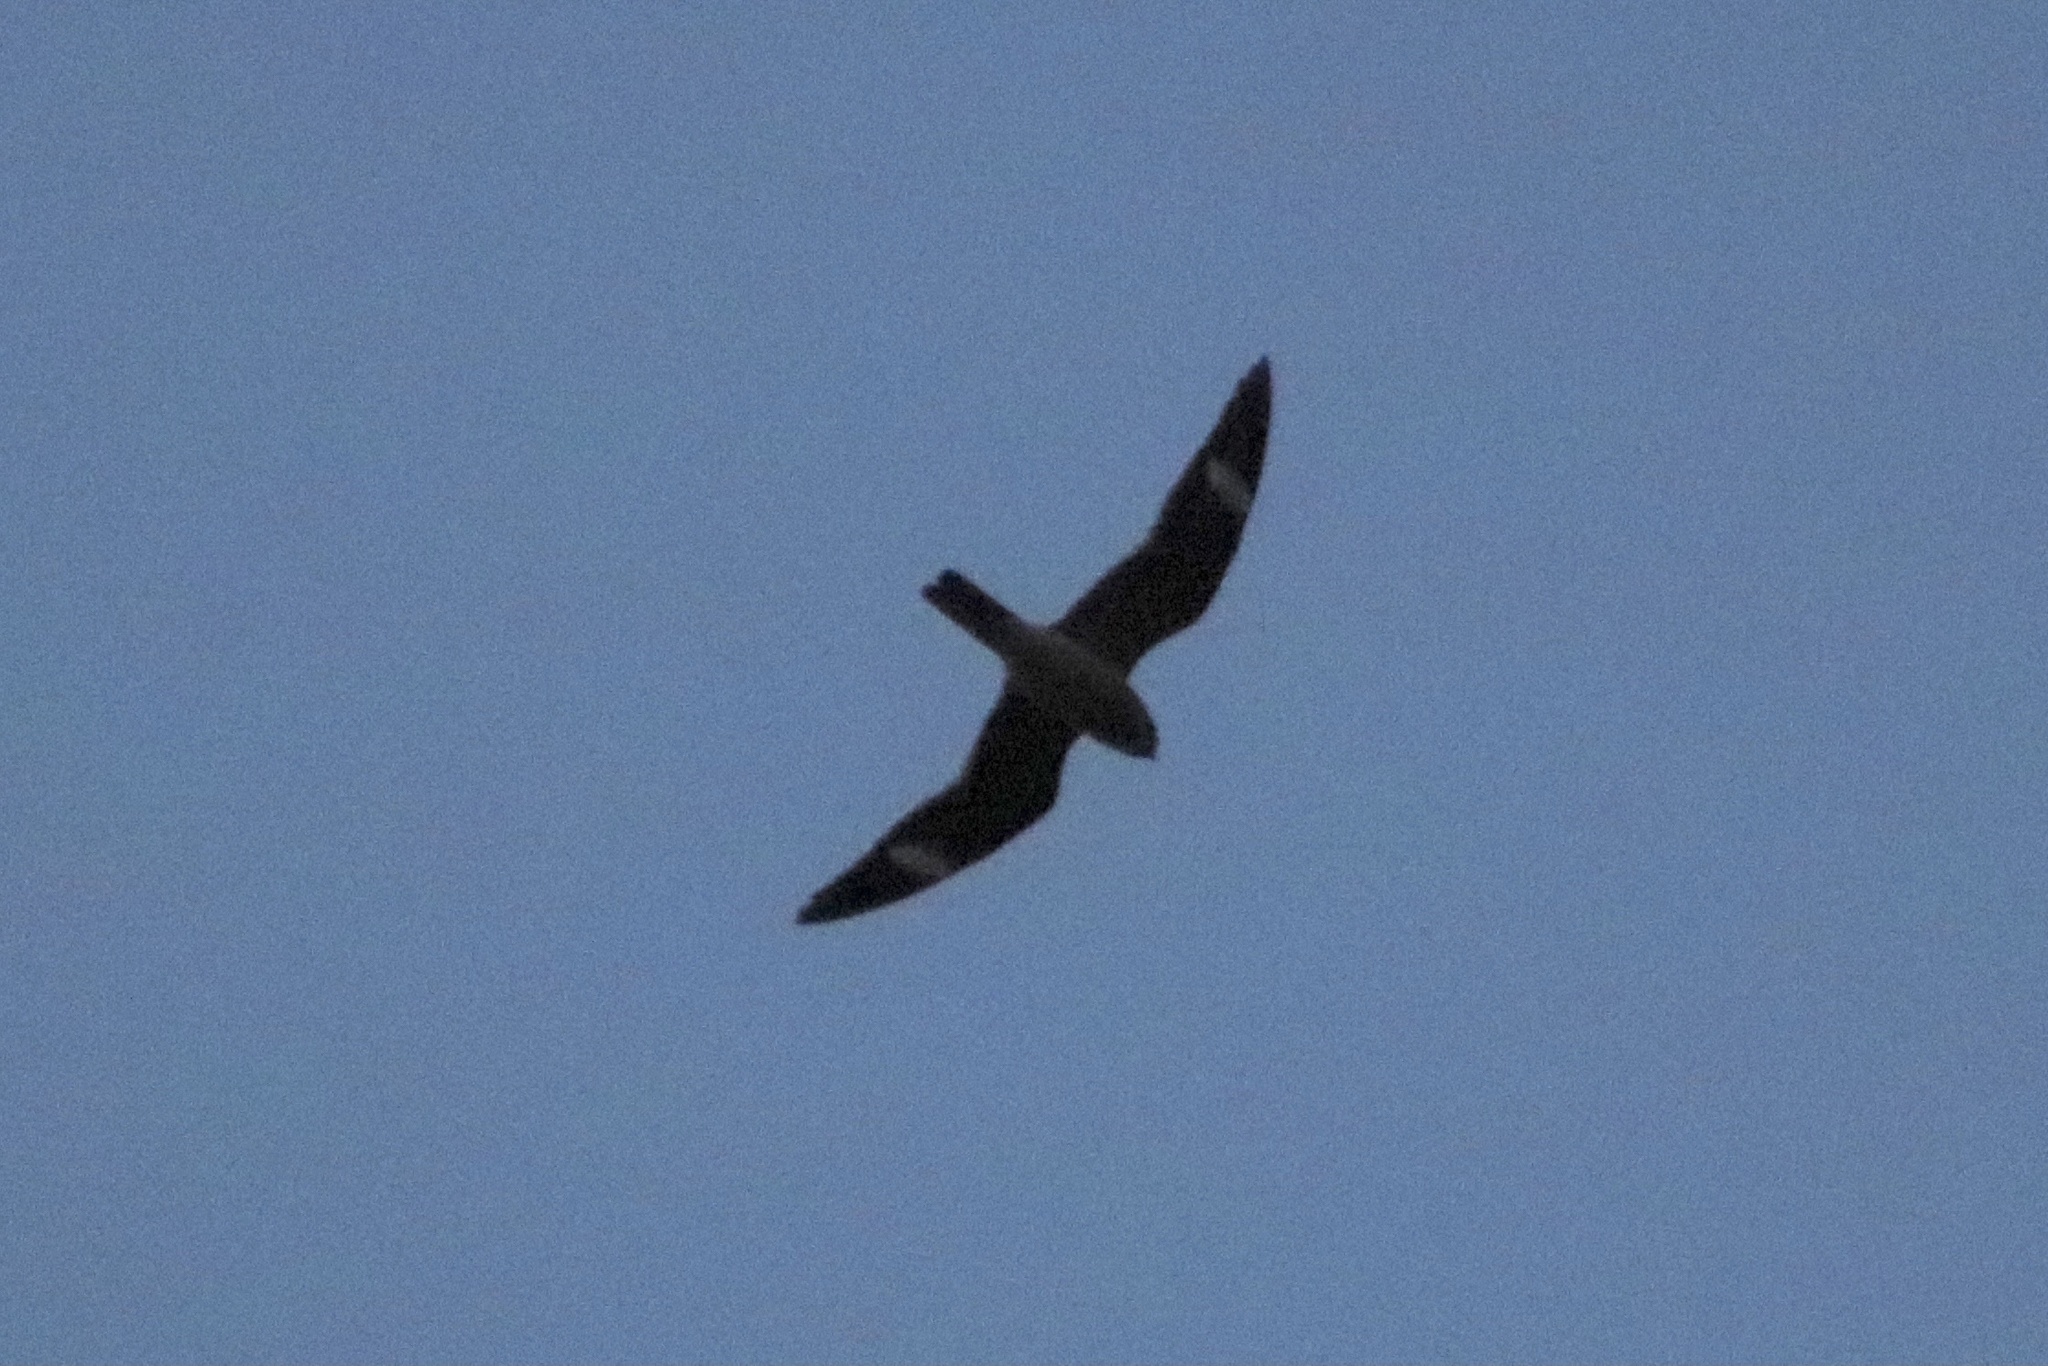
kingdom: Animalia
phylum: Chordata
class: Aves
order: Caprimulgiformes
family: Caprimulgidae
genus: Chordeiles
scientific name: Chordeiles minor
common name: Common nighthawk
